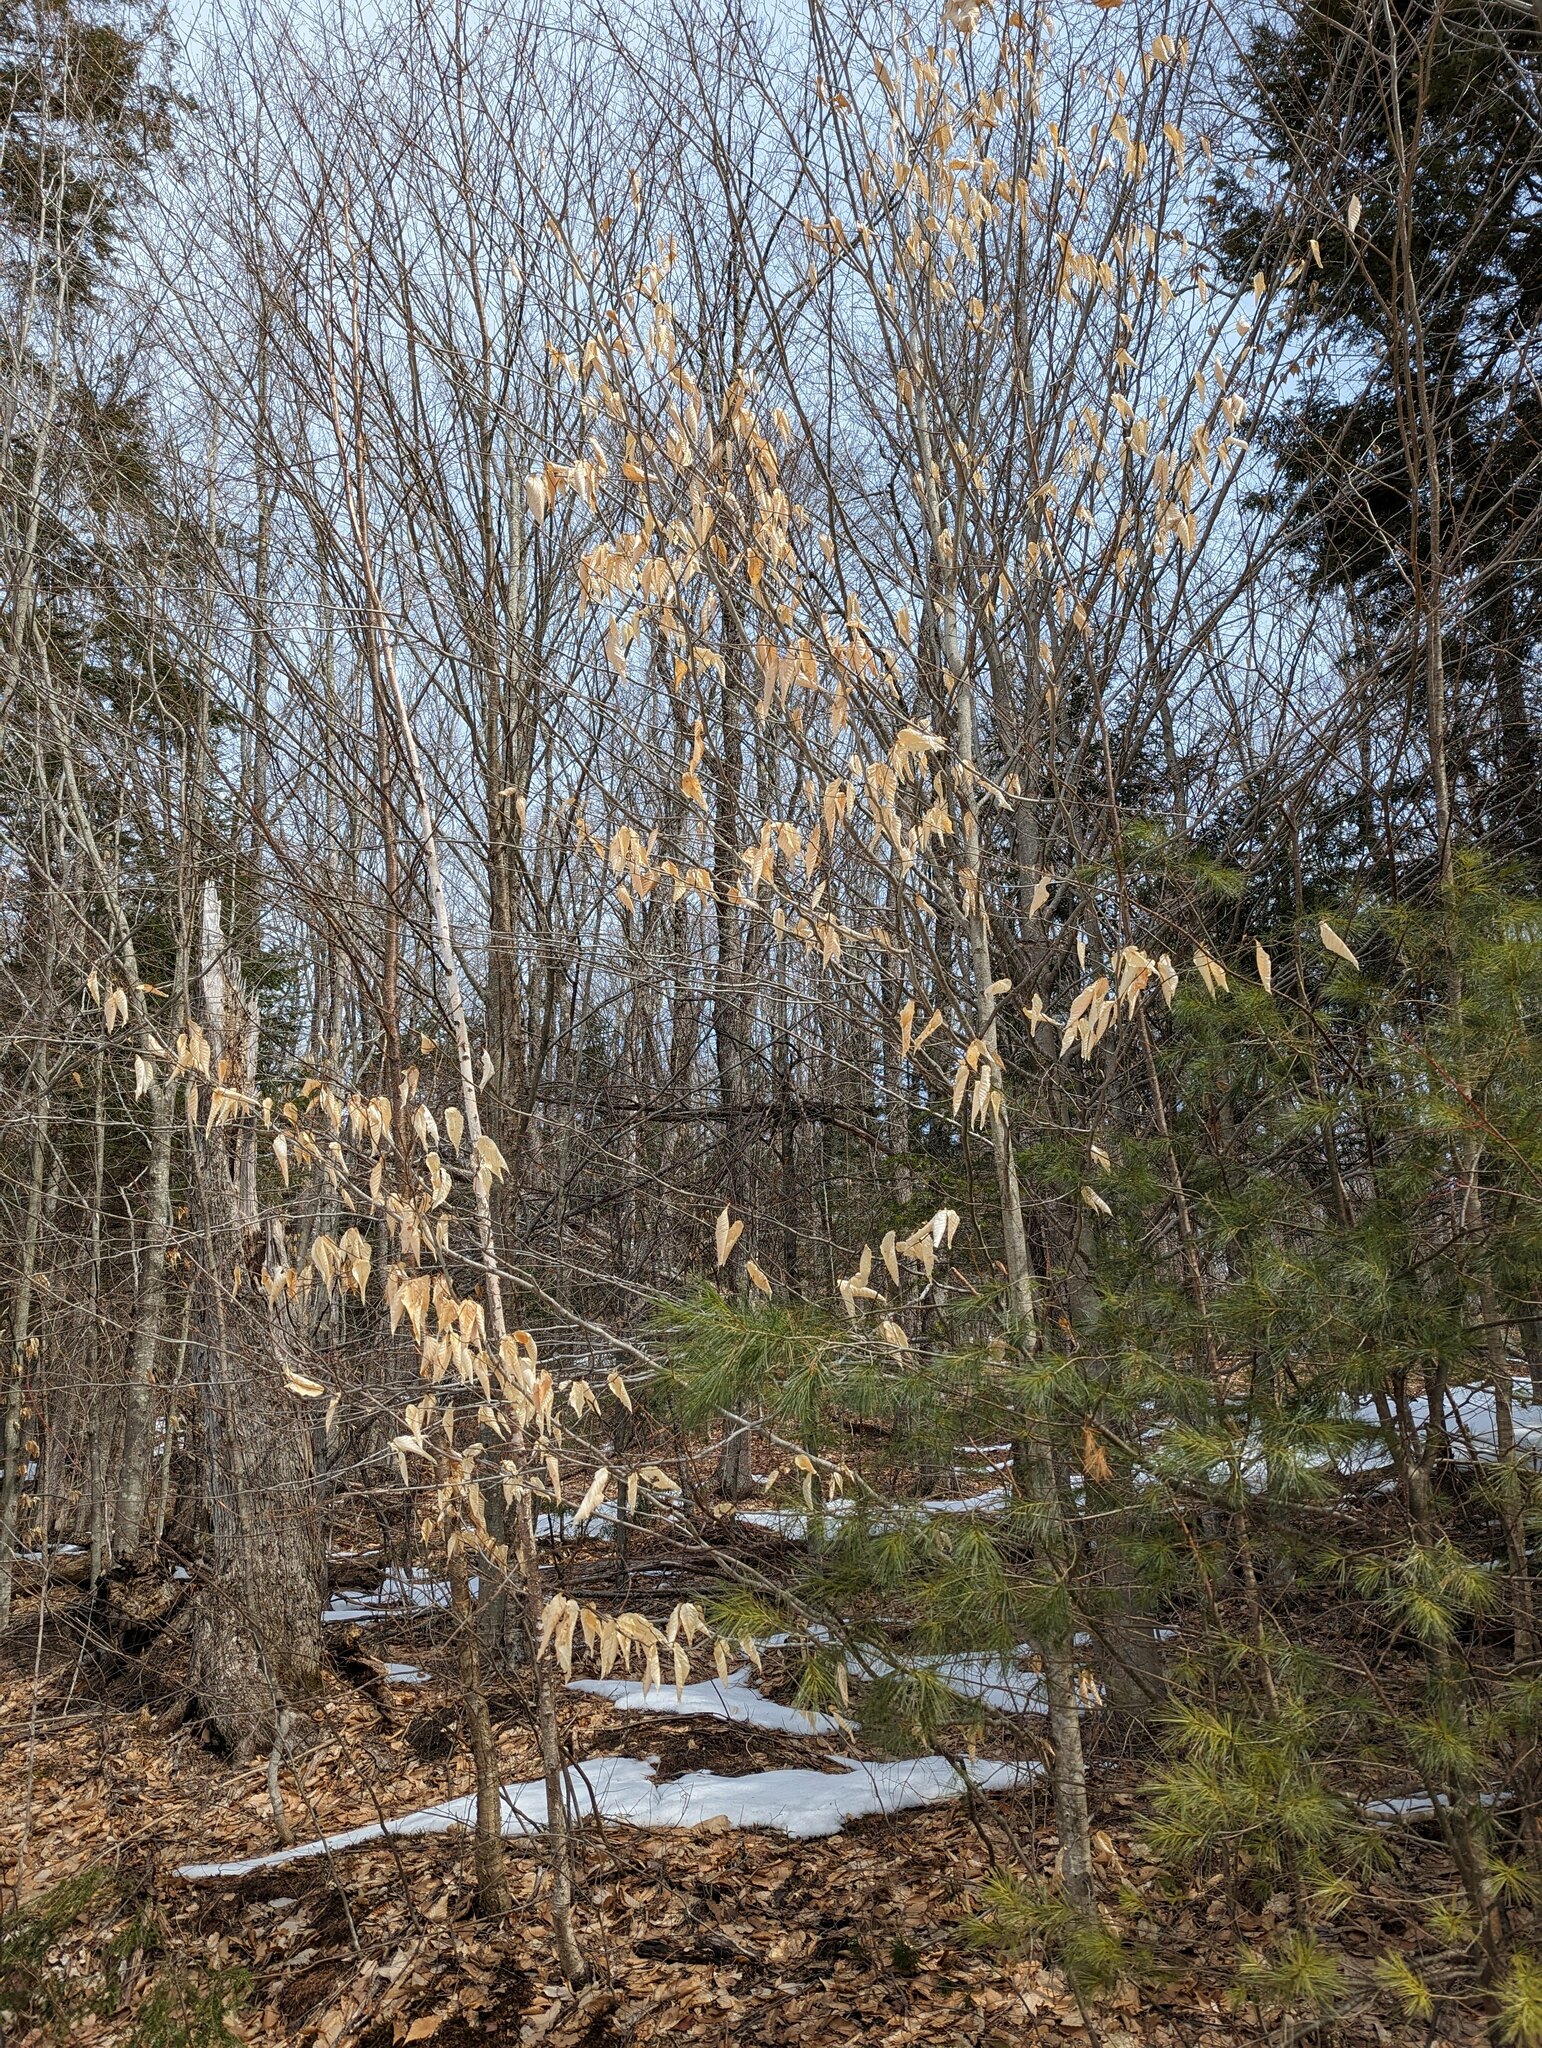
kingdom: Plantae
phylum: Tracheophyta
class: Magnoliopsida
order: Fagales
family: Fagaceae
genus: Fagus
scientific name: Fagus grandifolia
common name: American beech
